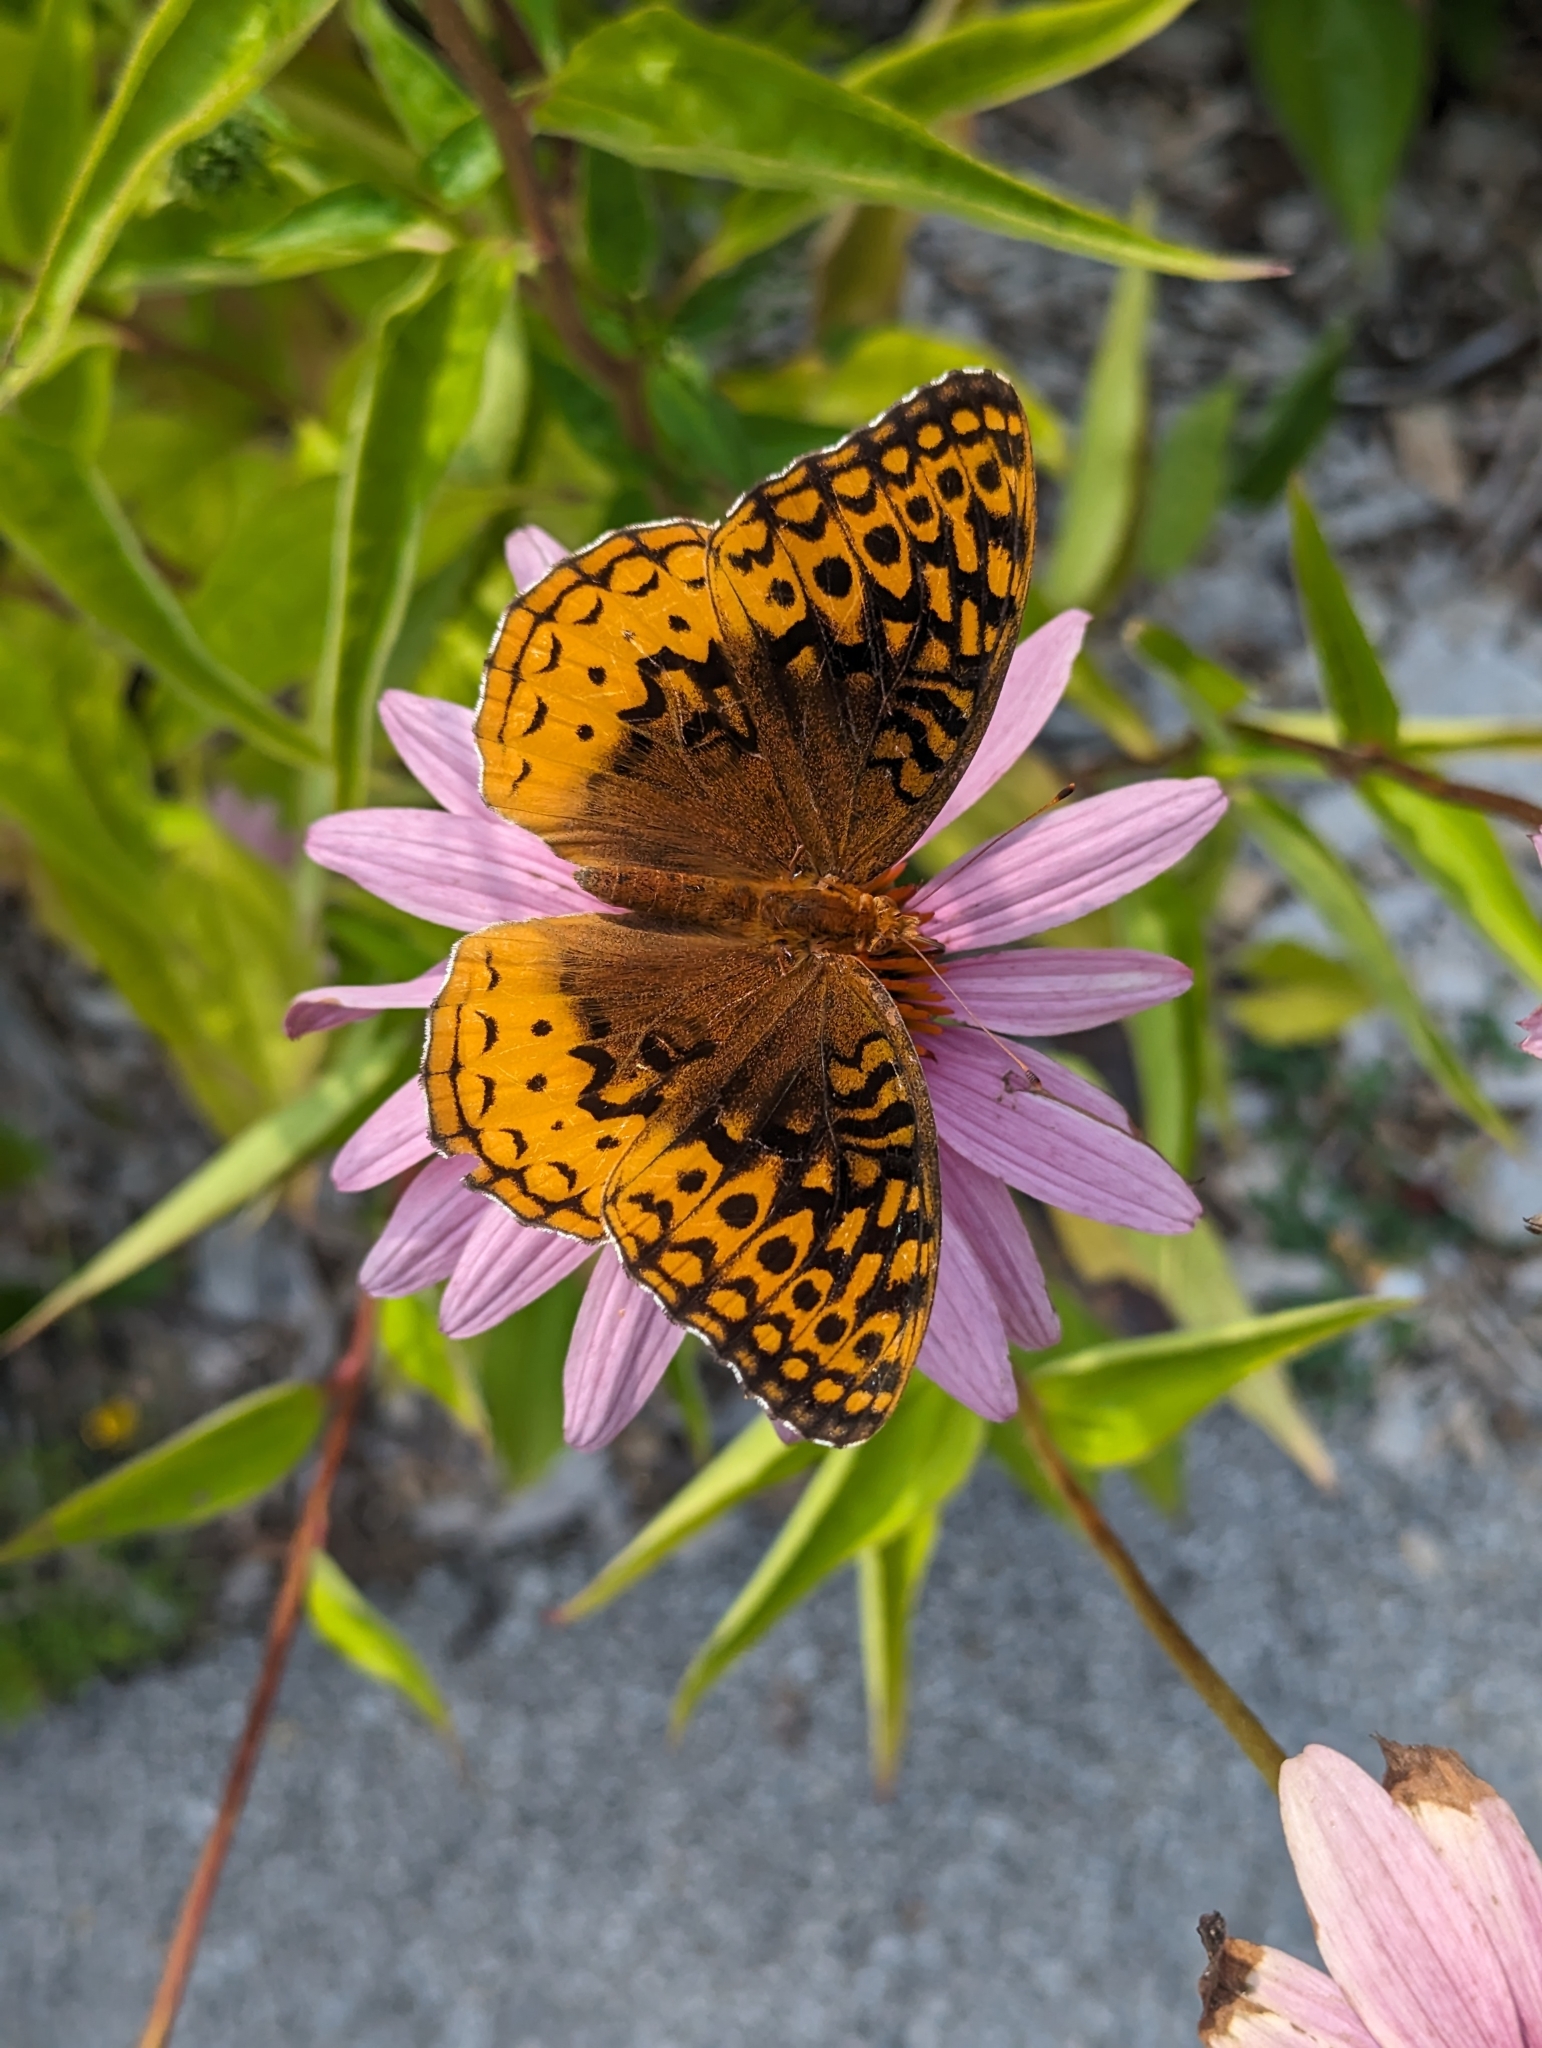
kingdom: Animalia
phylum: Arthropoda
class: Insecta
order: Lepidoptera
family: Nymphalidae
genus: Speyeria
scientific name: Speyeria cybele
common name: Great spangled fritillary
